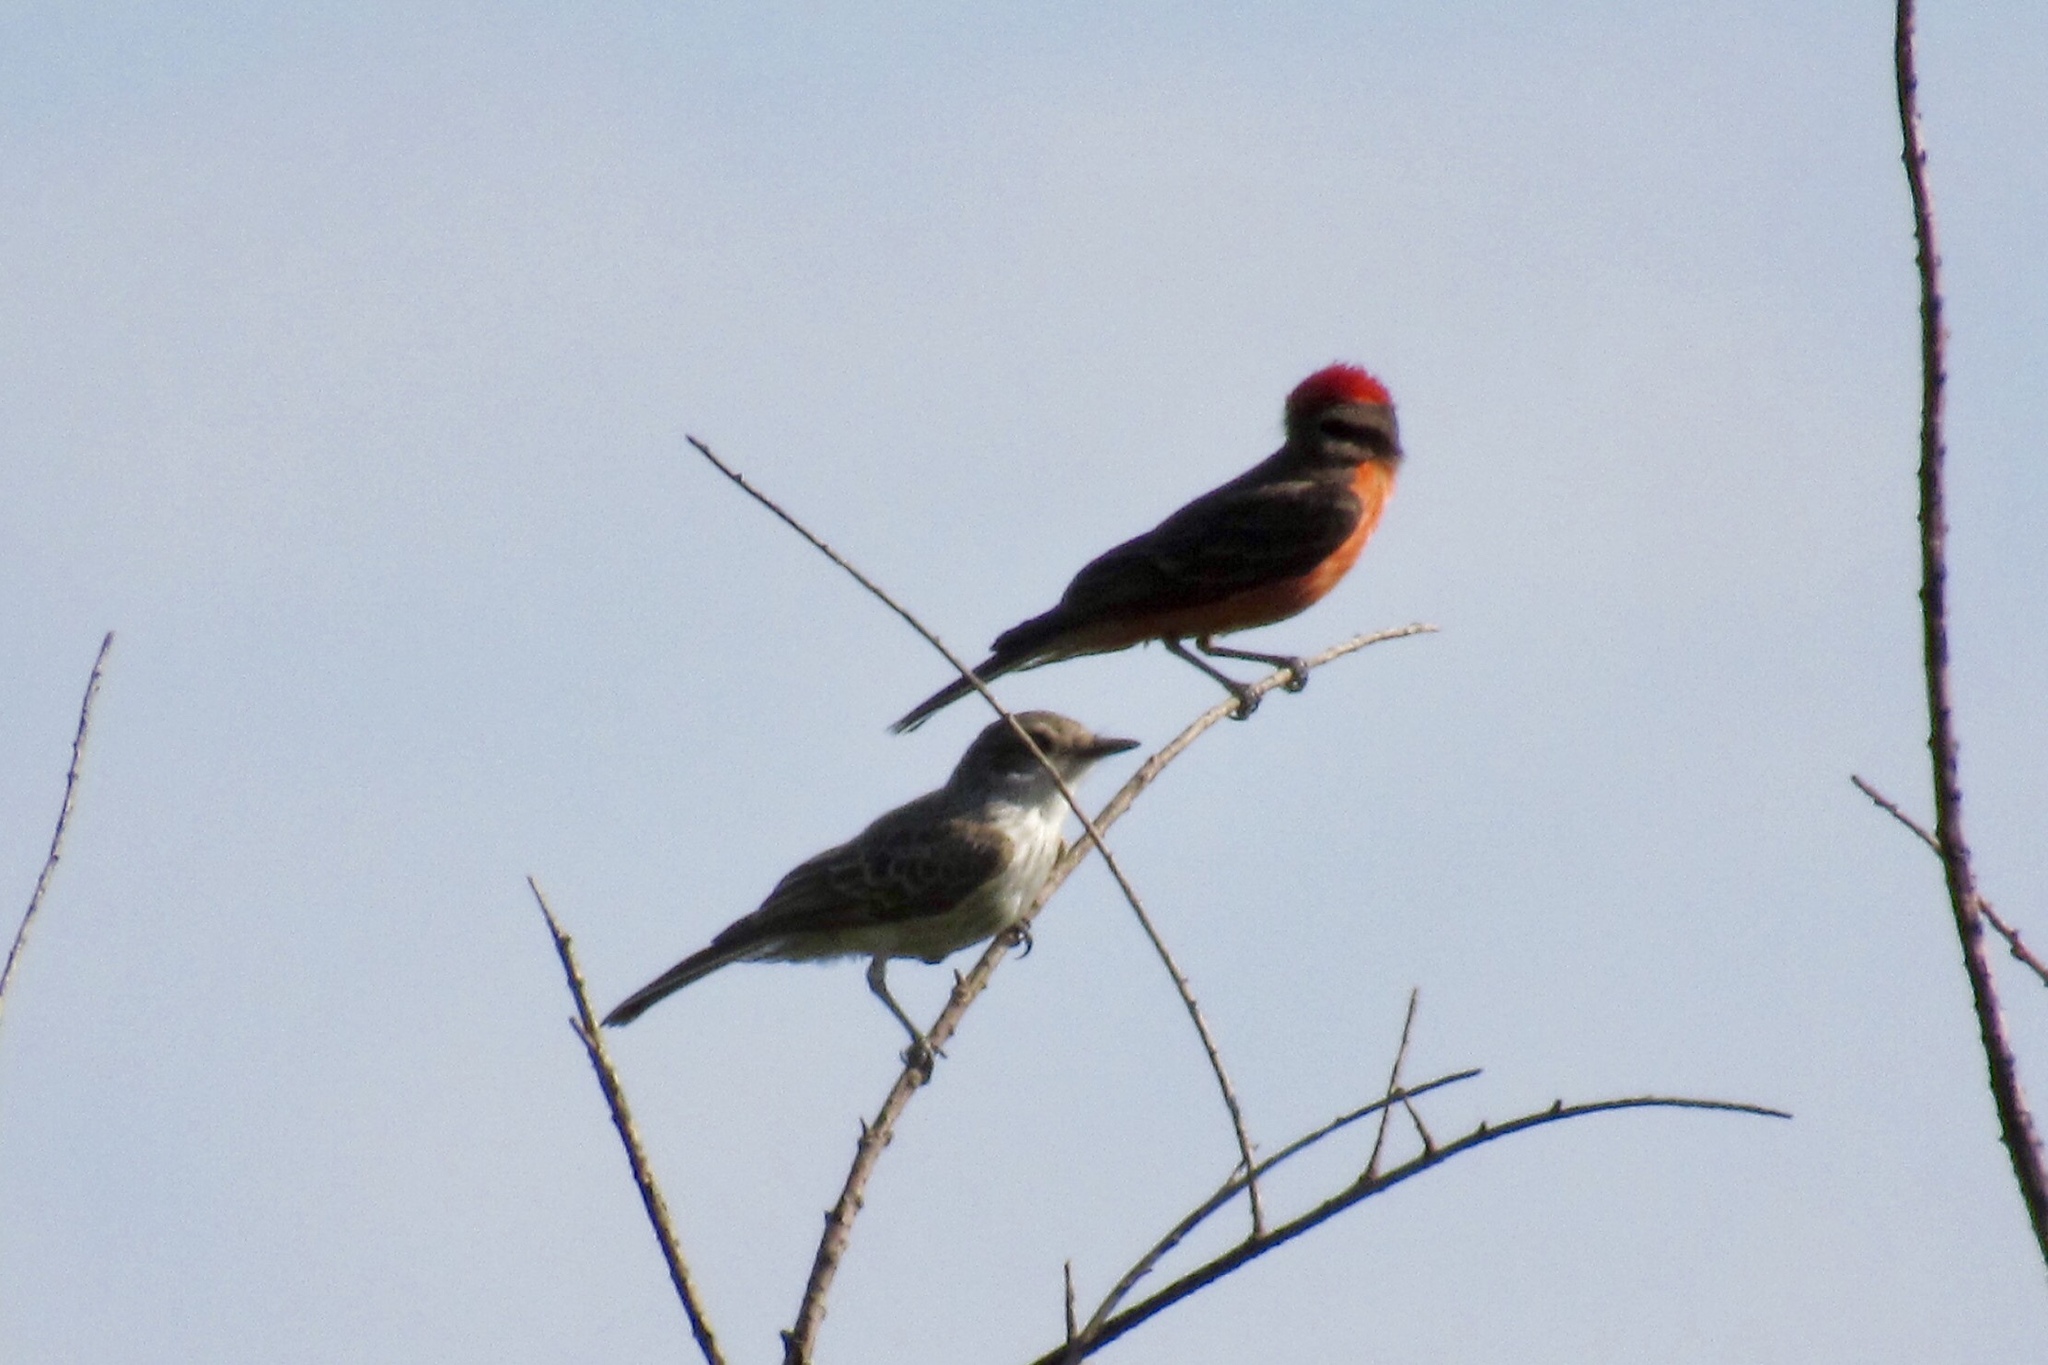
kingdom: Animalia
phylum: Chordata
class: Aves
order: Passeriformes
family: Tyrannidae
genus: Pyrocephalus
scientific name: Pyrocephalus rubinus
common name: Vermilion flycatcher
